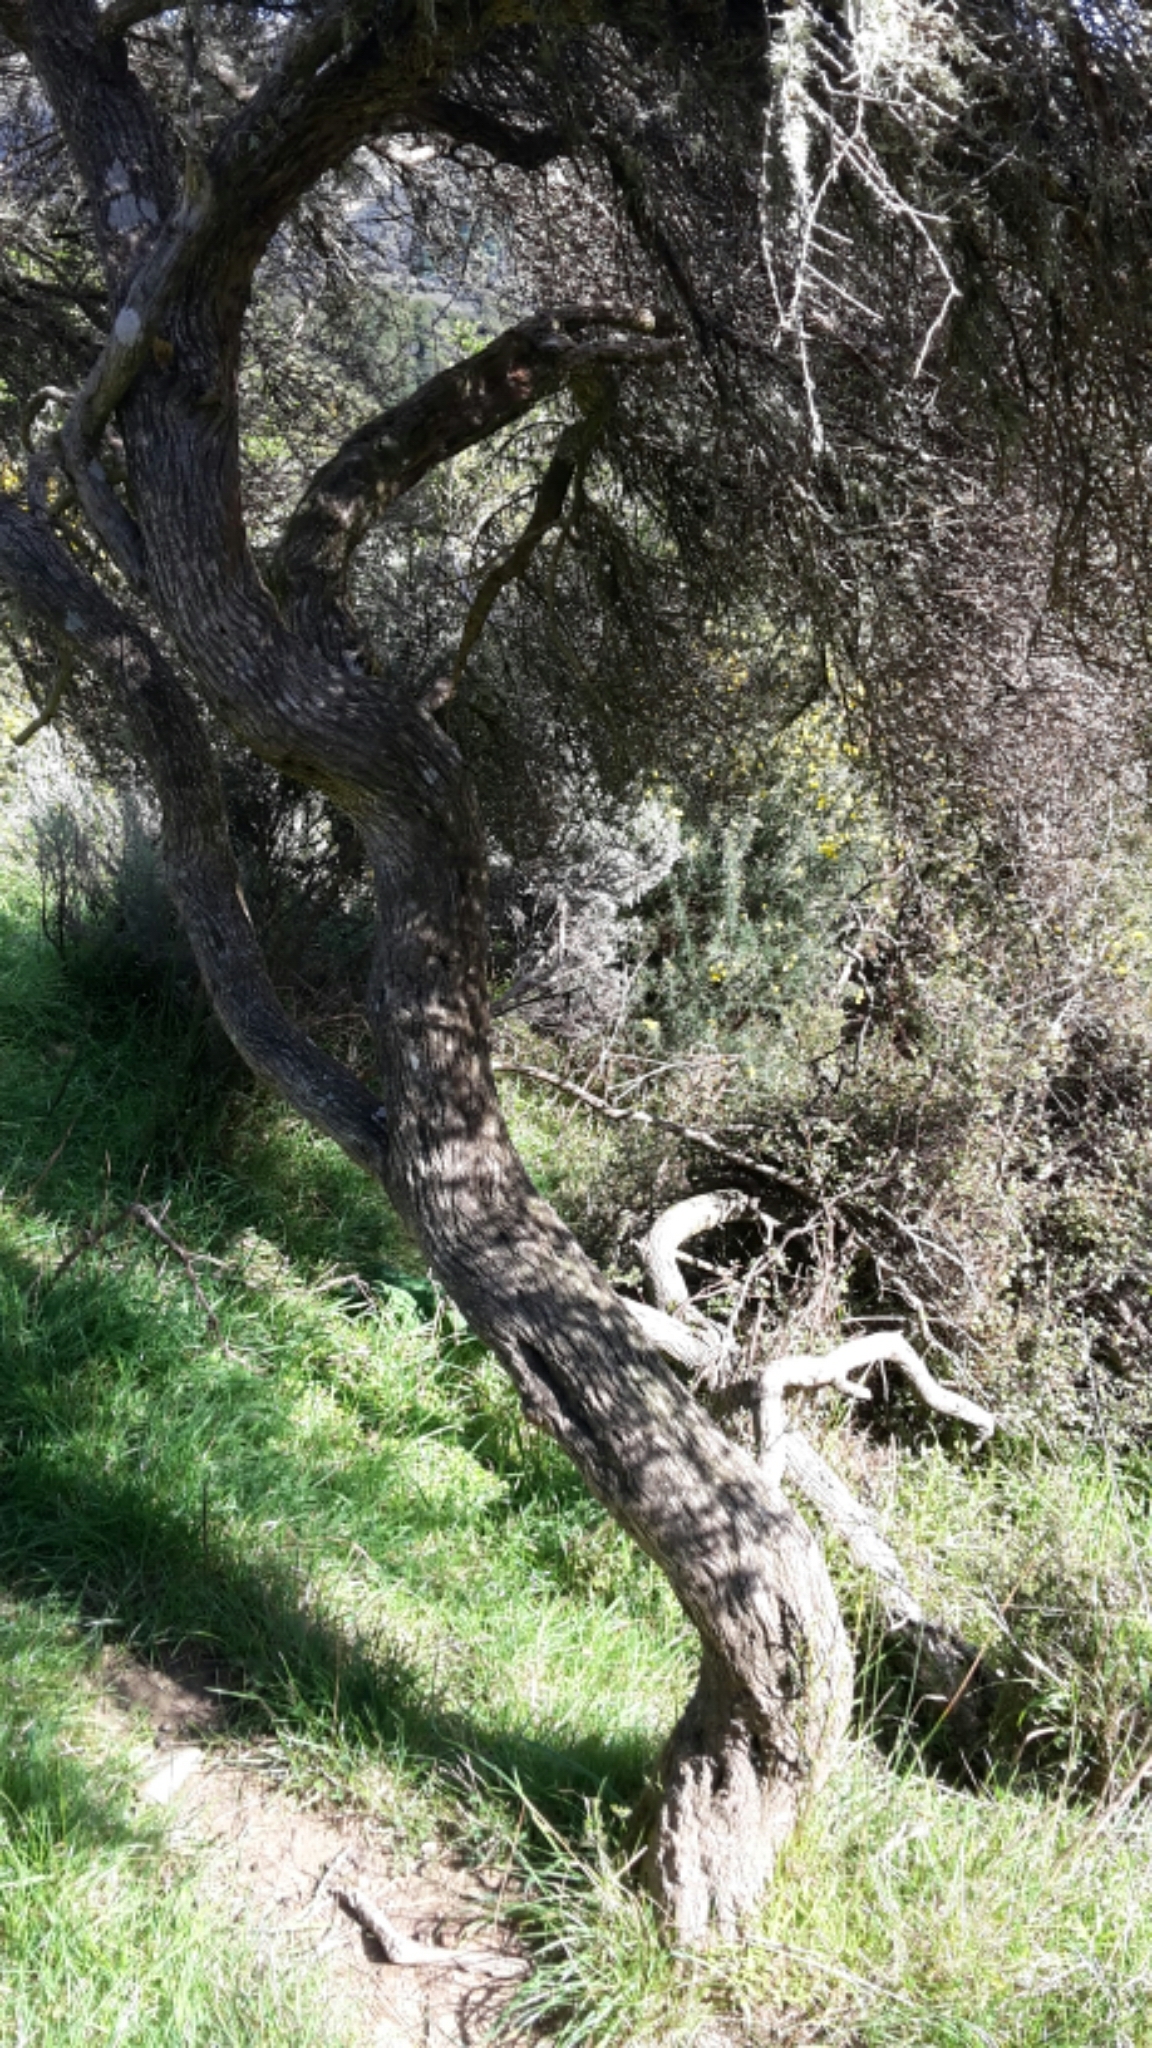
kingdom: Plantae
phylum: Tracheophyta
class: Magnoliopsida
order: Asterales
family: Asteraceae
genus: Olearia
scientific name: Olearia solandri
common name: Coastal daisybush
